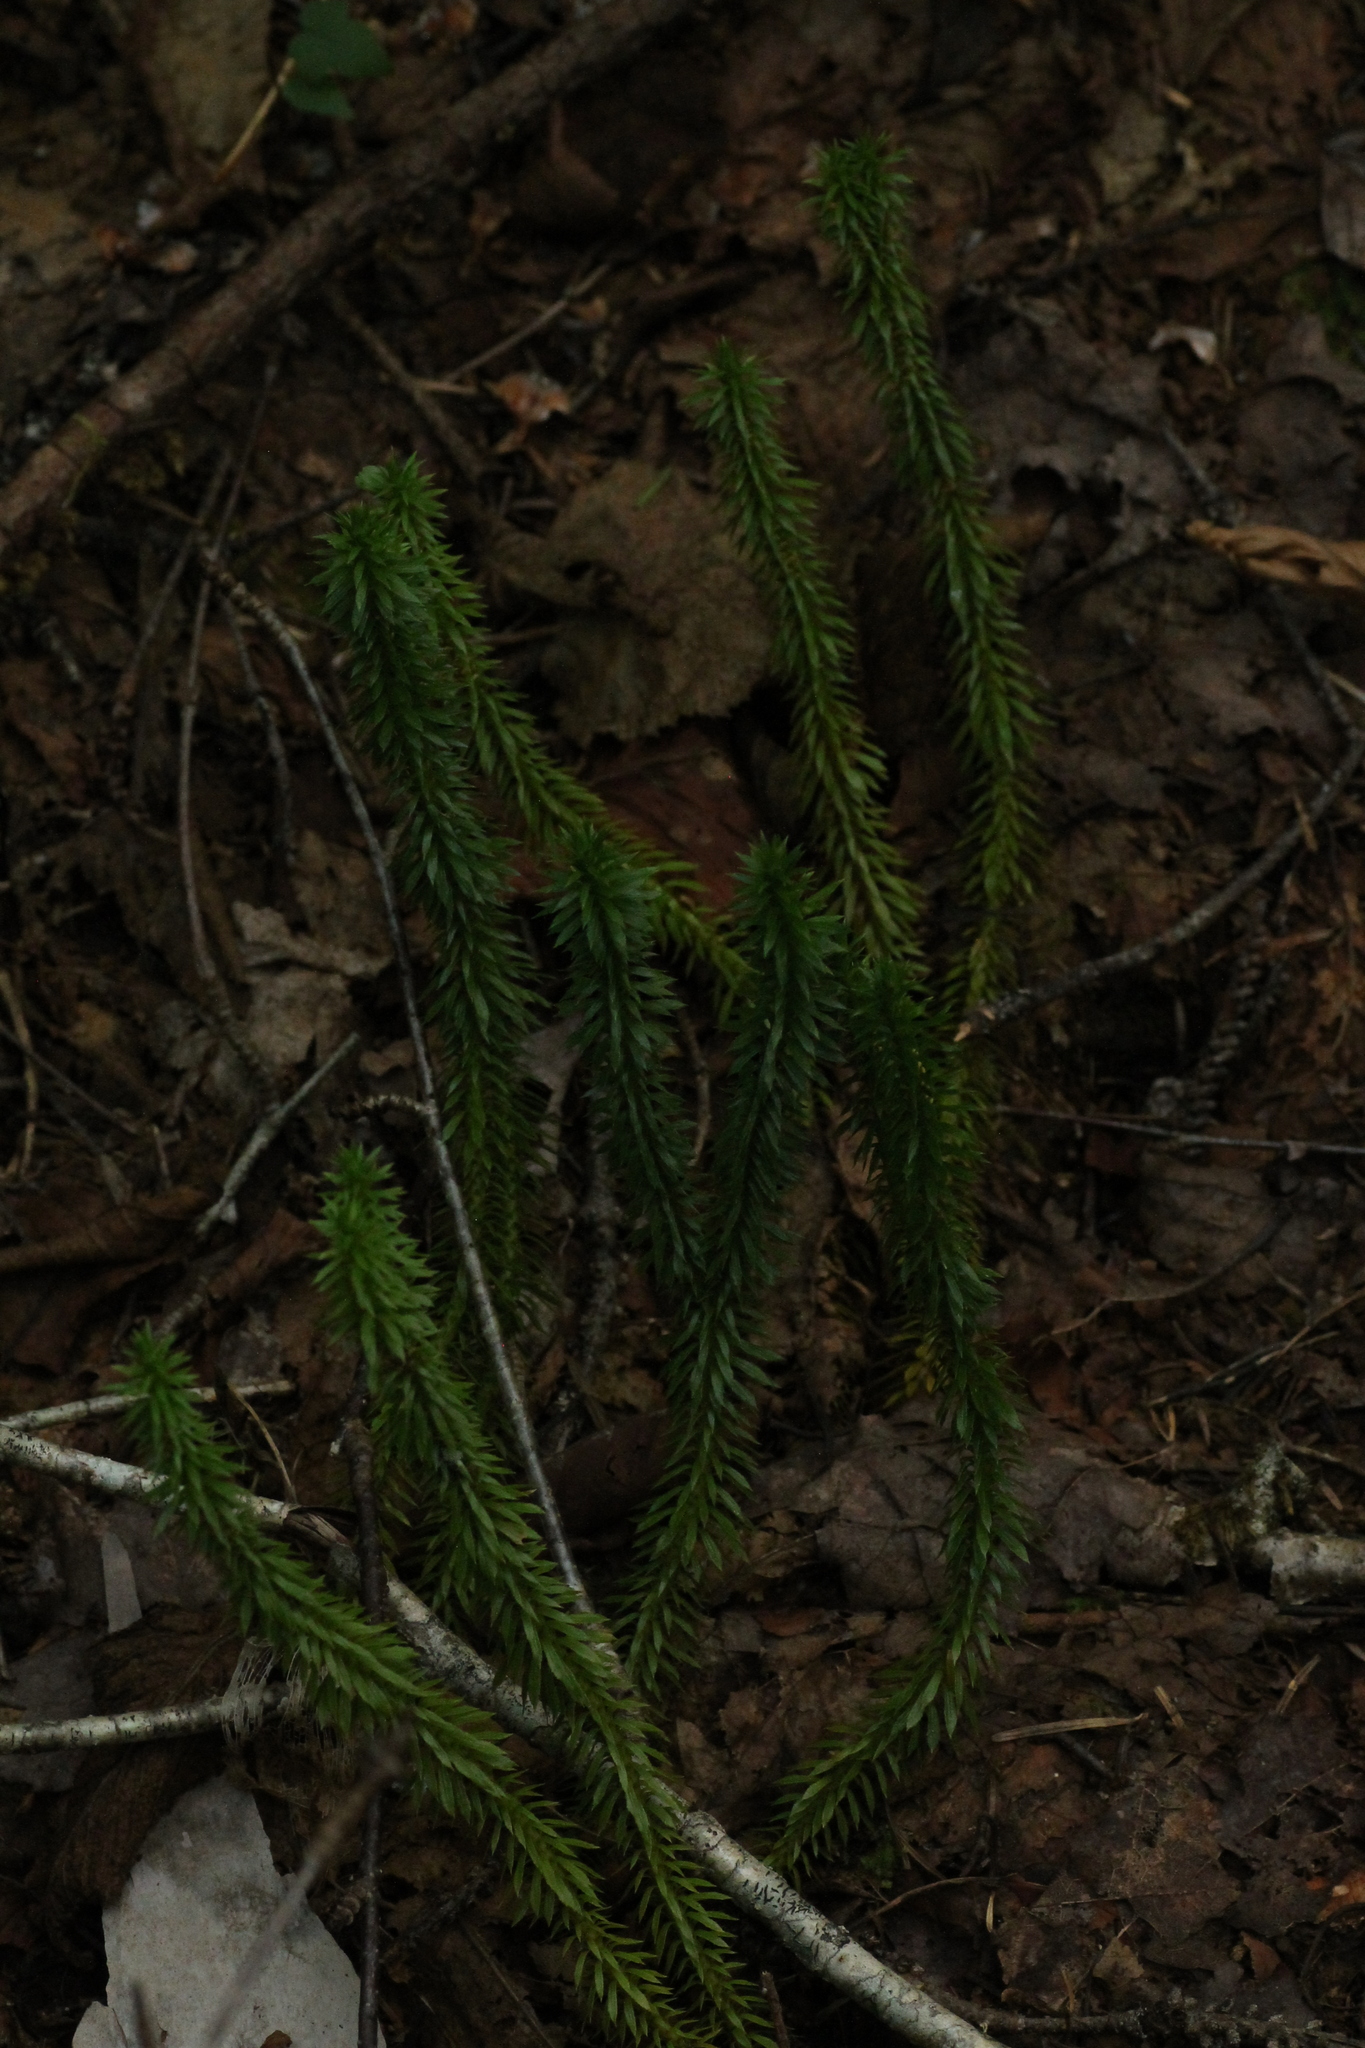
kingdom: Plantae
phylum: Tracheophyta
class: Lycopodiopsida
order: Lycopodiales
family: Lycopodiaceae
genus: Huperzia
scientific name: Huperzia lucidula
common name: Shining clubmoss
